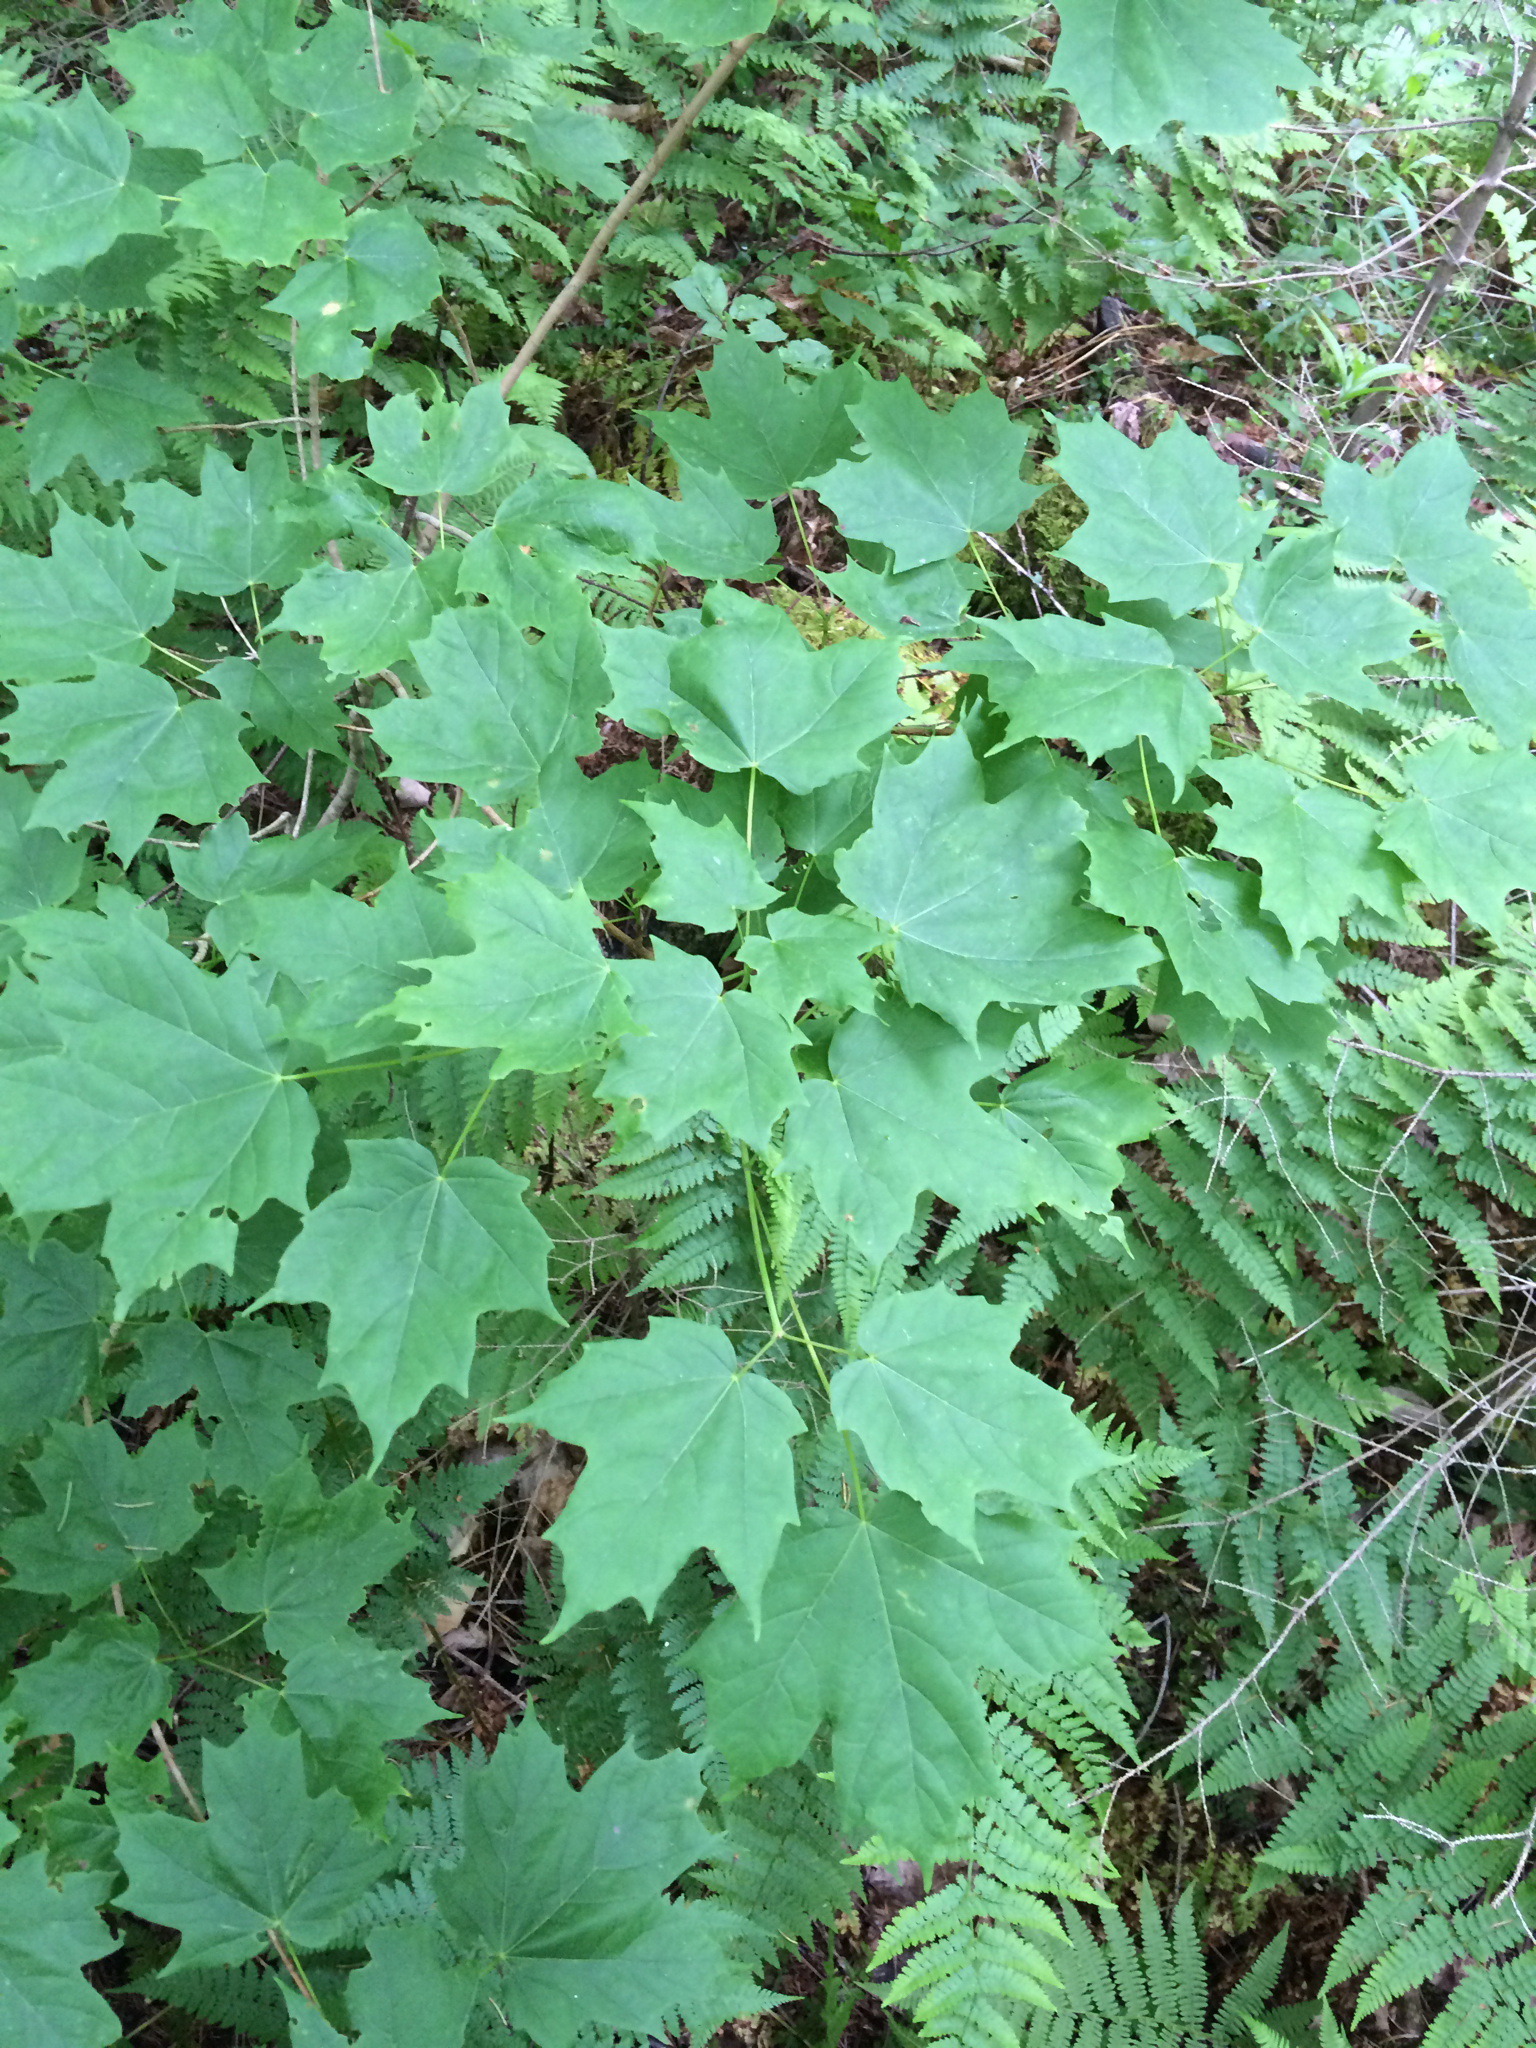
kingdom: Plantae
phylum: Tracheophyta
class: Magnoliopsida
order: Sapindales
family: Sapindaceae
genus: Acer
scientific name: Acer saccharum
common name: Sugar maple
